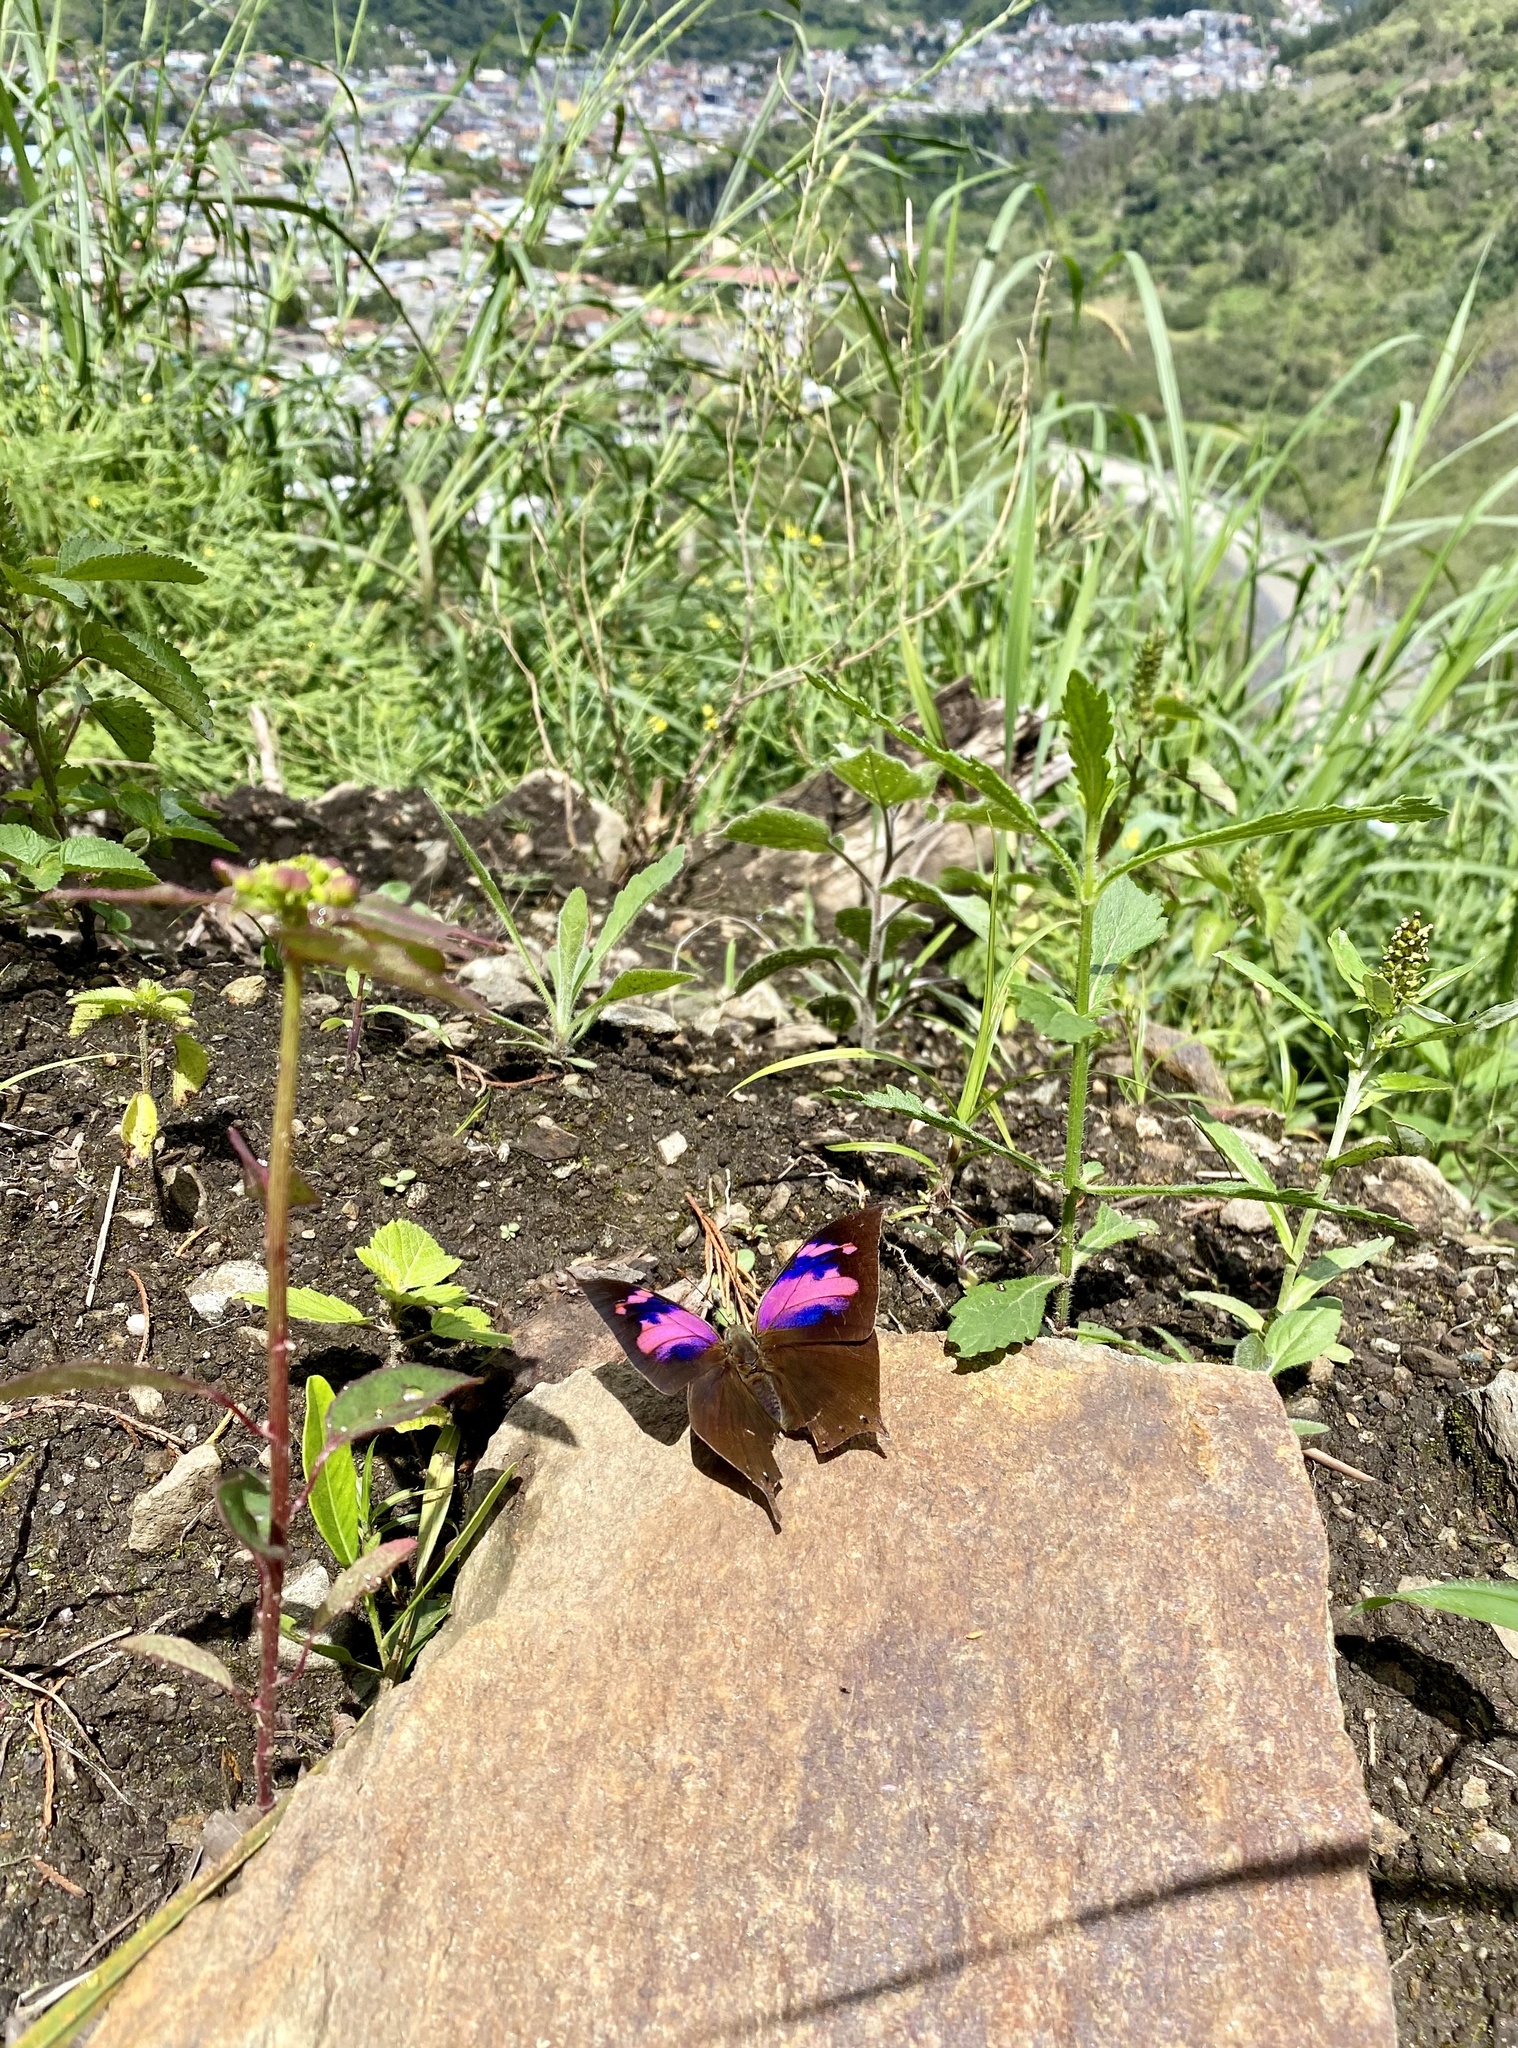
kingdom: Animalia
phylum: Arthropoda
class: Insecta
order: Lepidoptera
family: Nymphalidae
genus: Fountainea
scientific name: Fountainea
